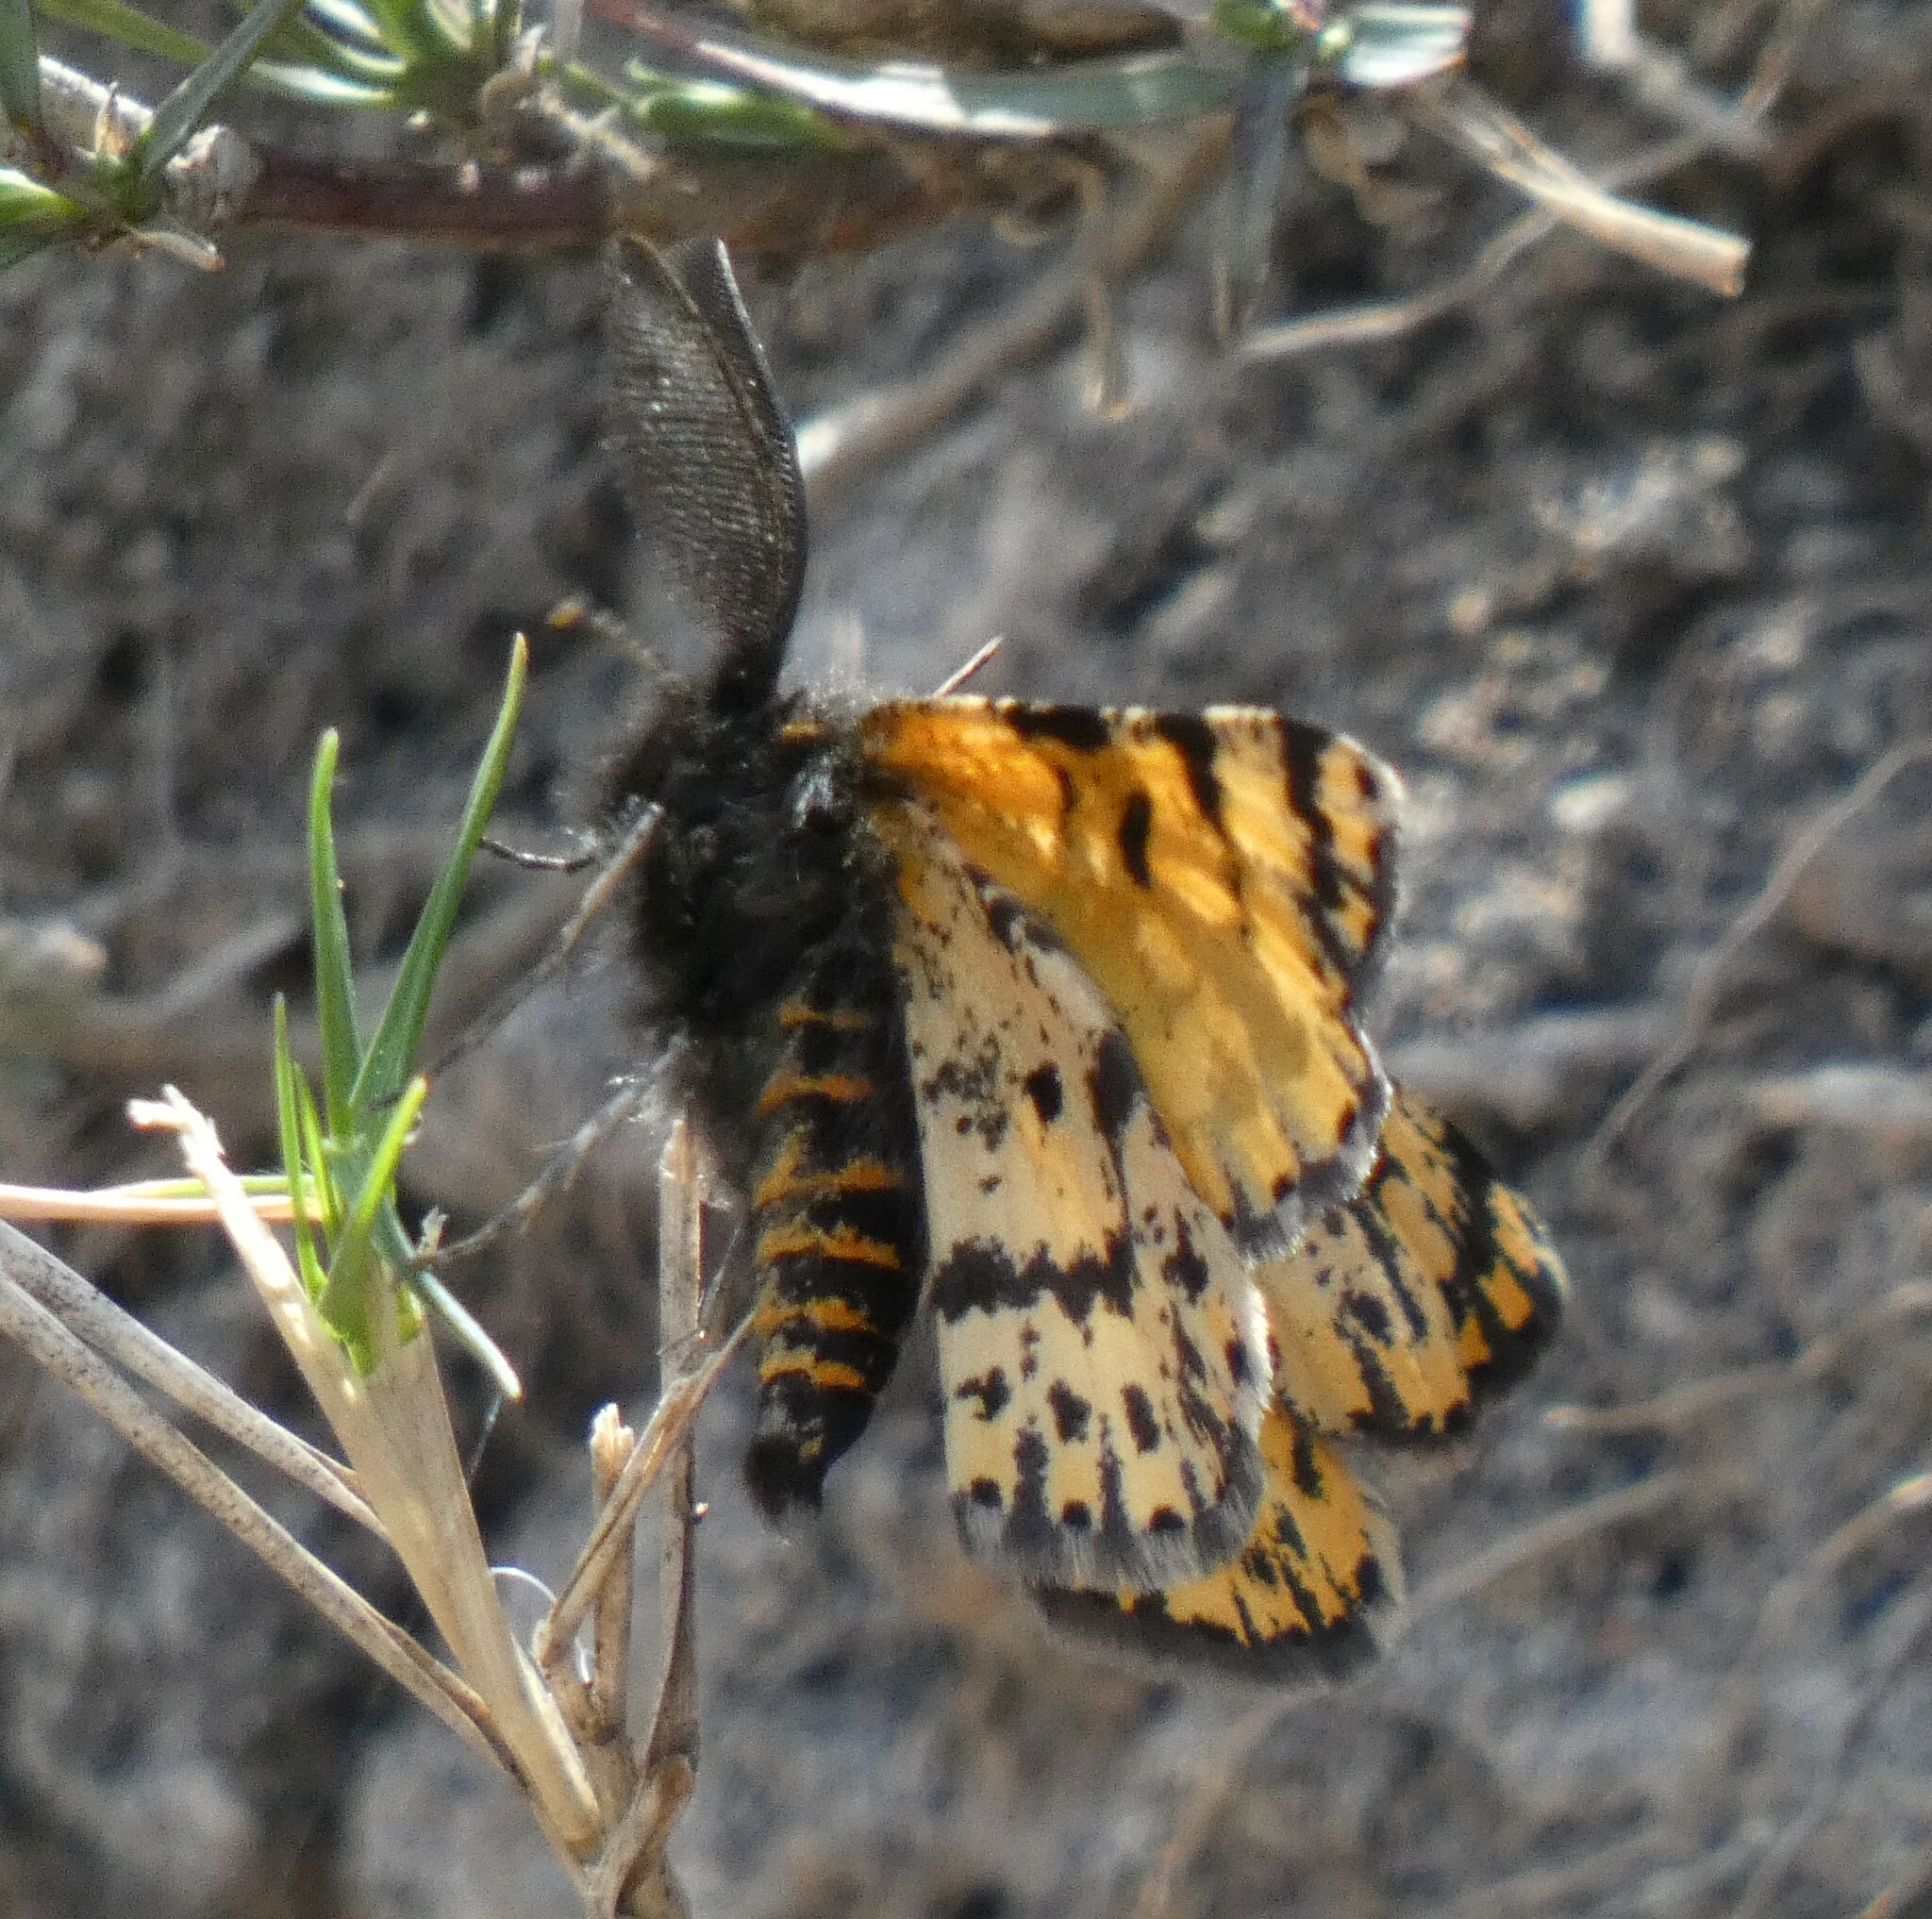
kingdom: Animalia
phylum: Arthropoda
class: Insecta
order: Lepidoptera
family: Geometridae
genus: Eurranthis
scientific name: Eurranthis plummistaria
